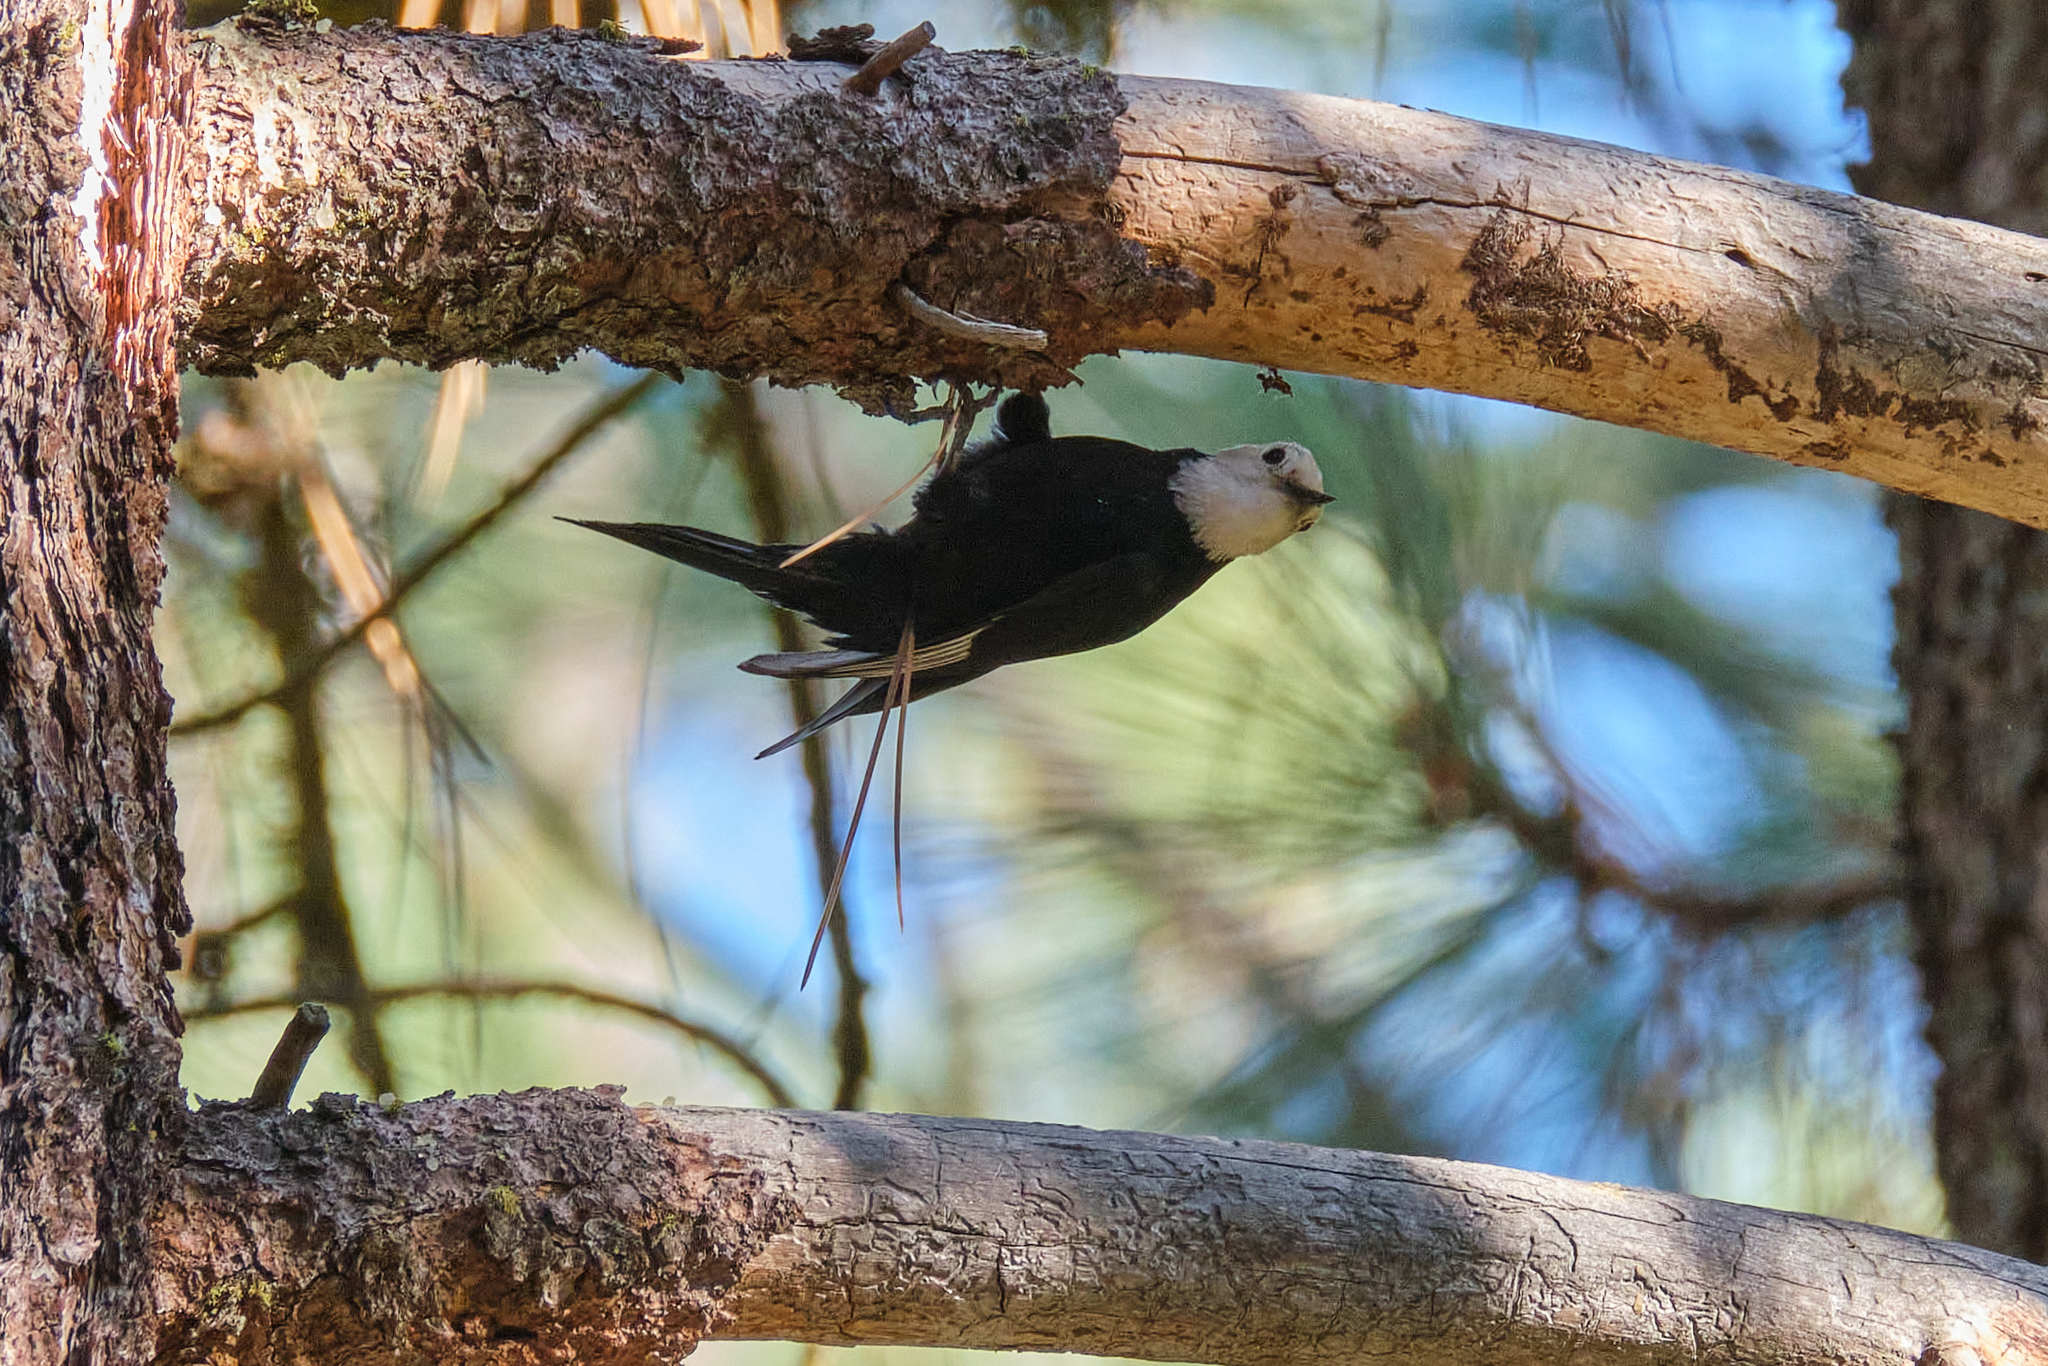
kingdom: Animalia
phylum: Chordata
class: Aves
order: Piciformes
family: Picidae
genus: Leuconotopicus
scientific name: Leuconotopicus albolarvatus
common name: White-headed woodpecker
